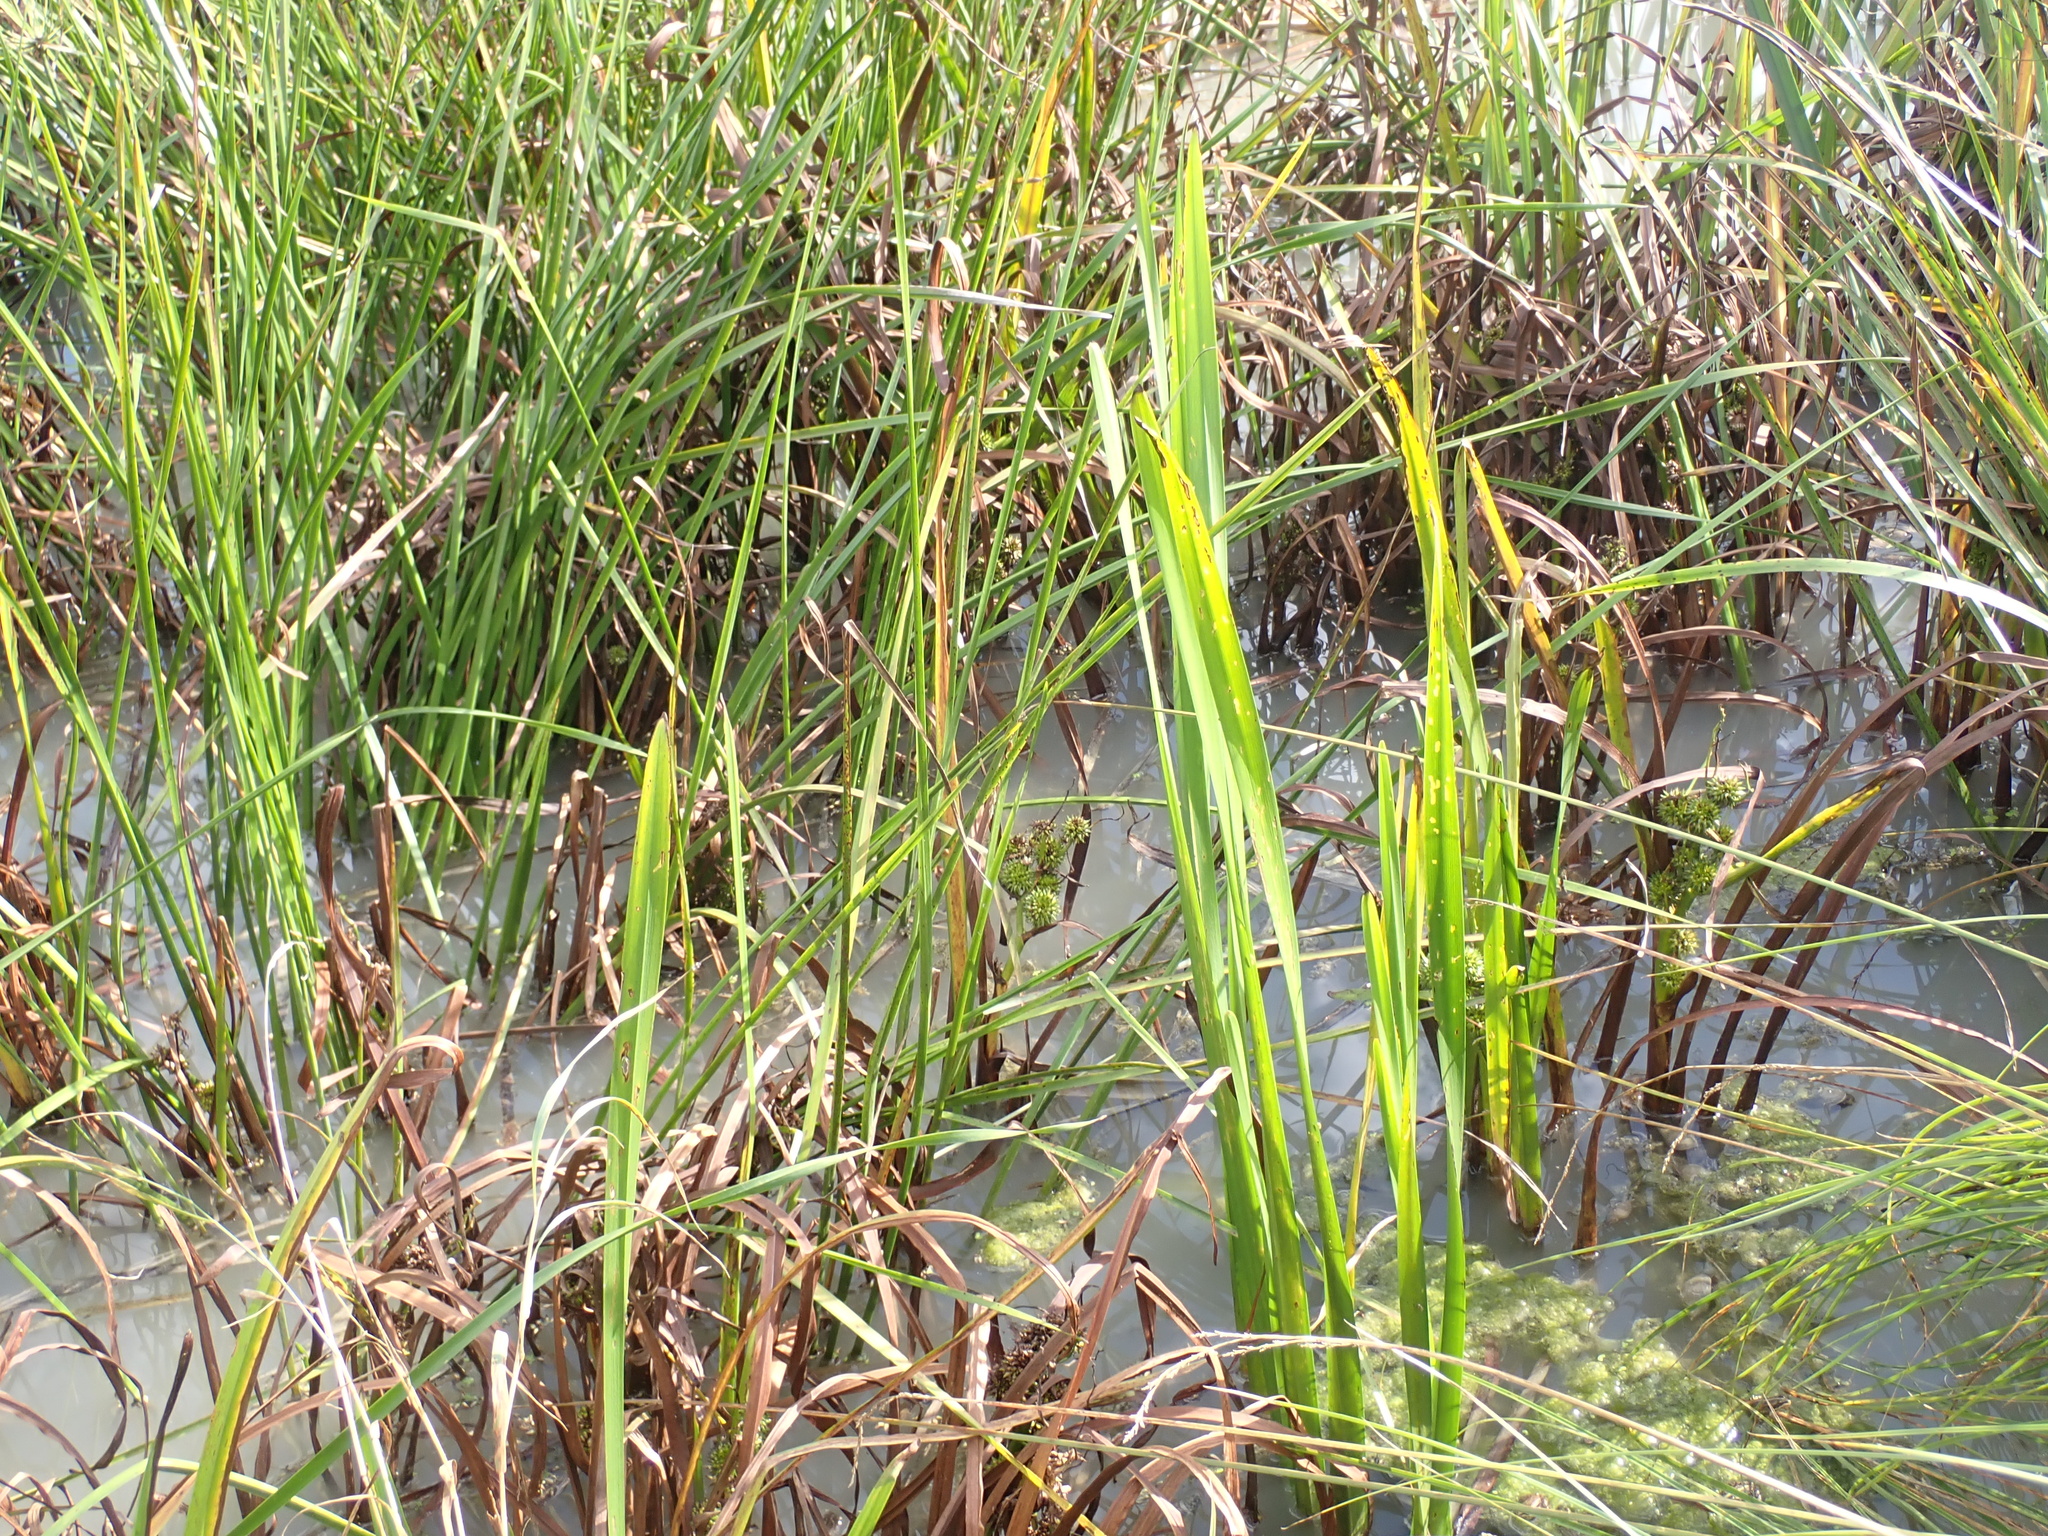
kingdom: Plantae
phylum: Tracheophyta
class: Liliopsida
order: Poales
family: Typhaceae
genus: Sparganium
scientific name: Sparganium erectum
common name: Branched bur-reed
